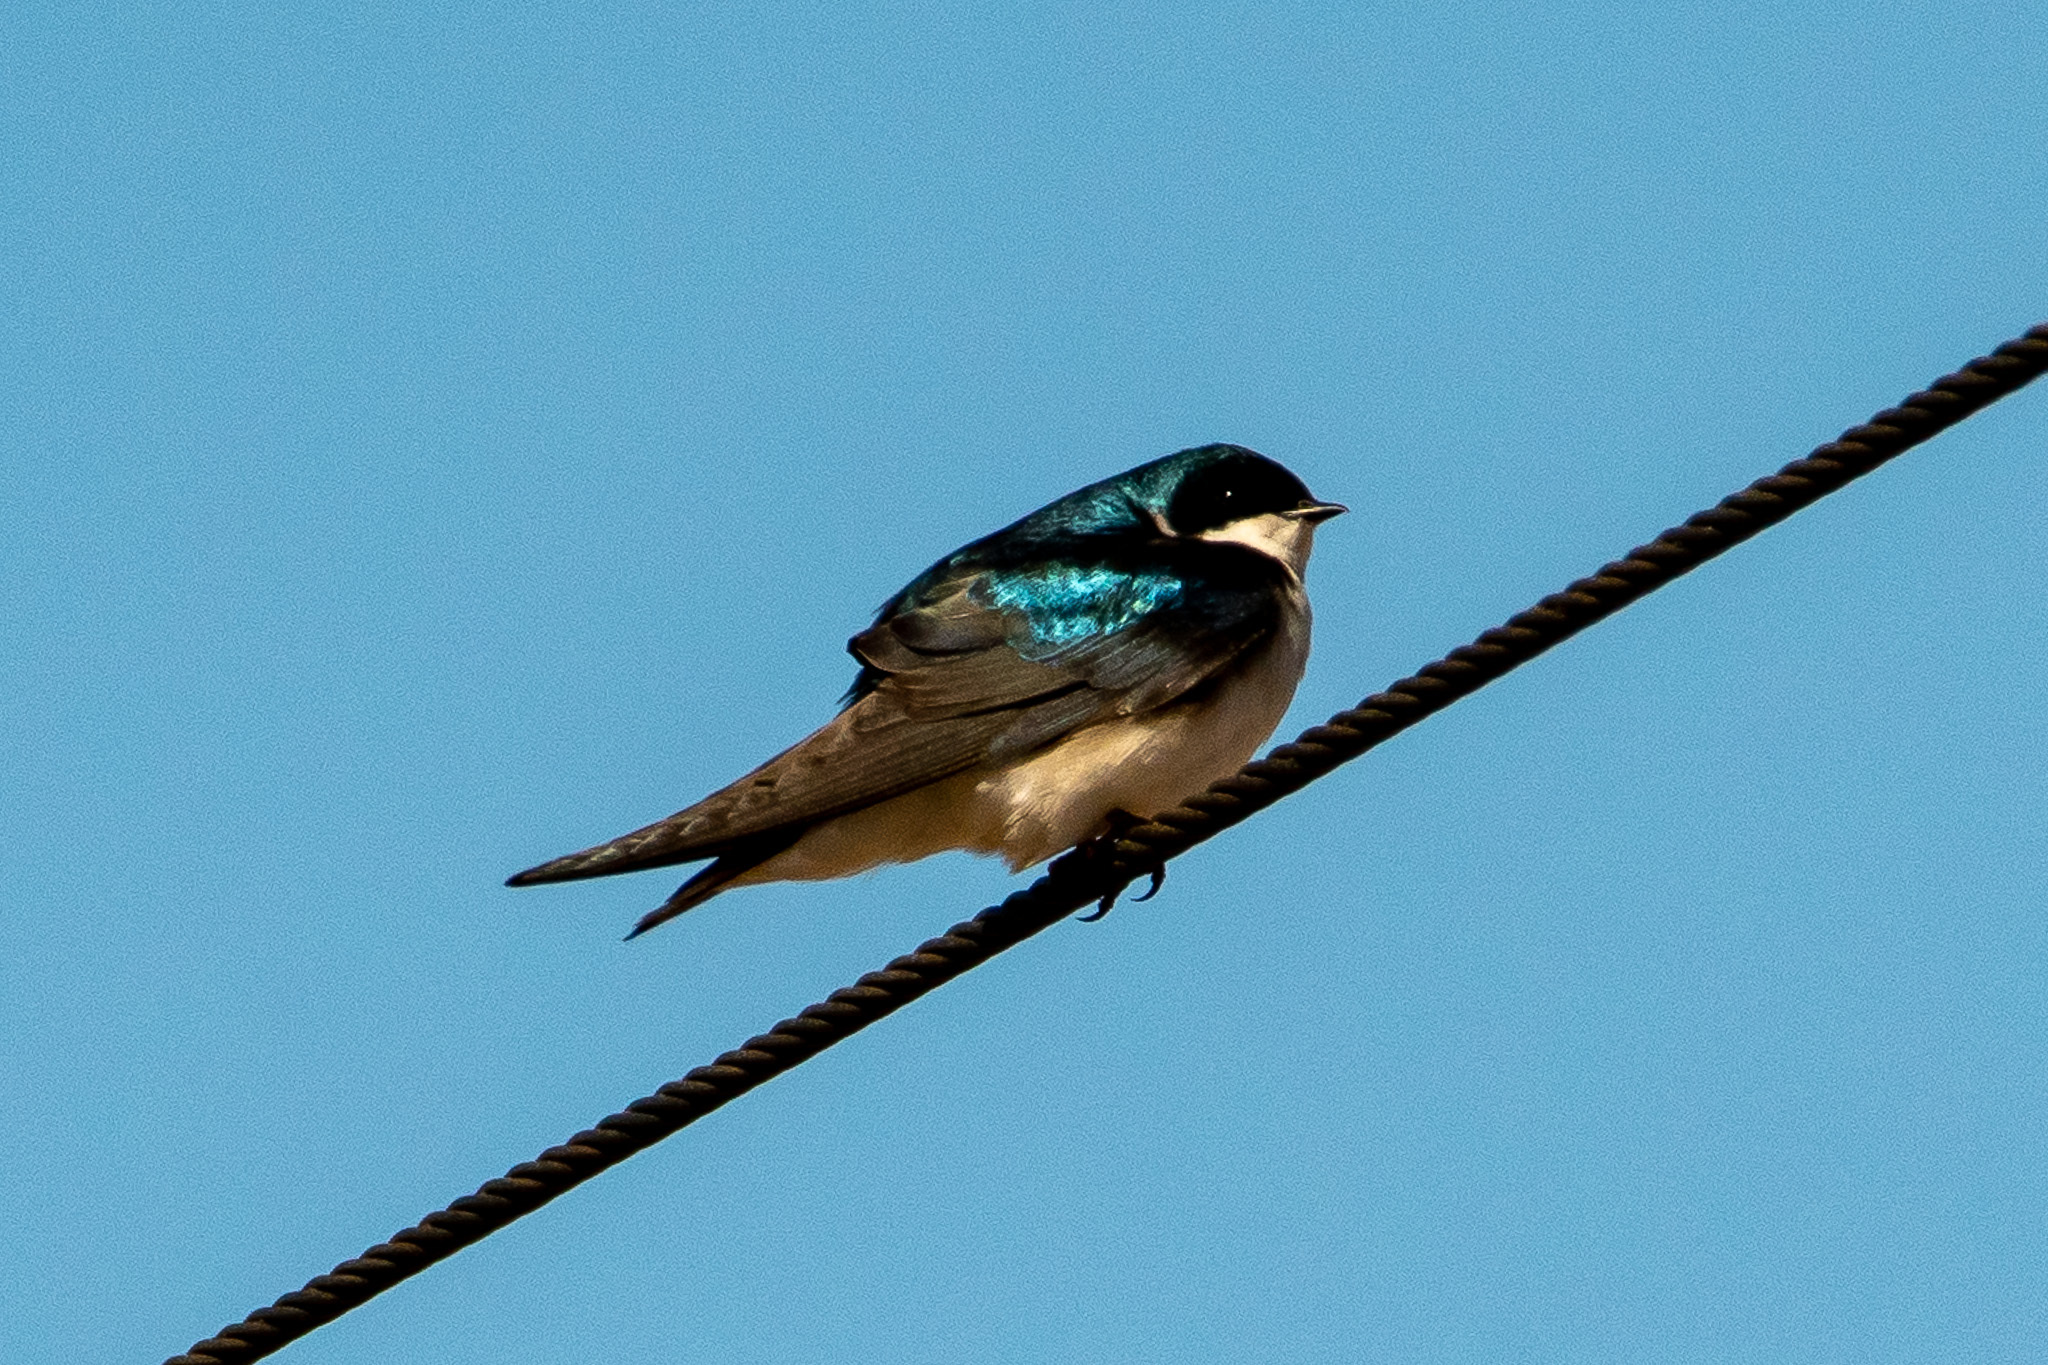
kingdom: Animalia
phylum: Chordata
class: Aves
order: Passeriformes
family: Hirundinidae
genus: Tachycineta
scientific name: Tachycineta bicolor
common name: Tree swallow
